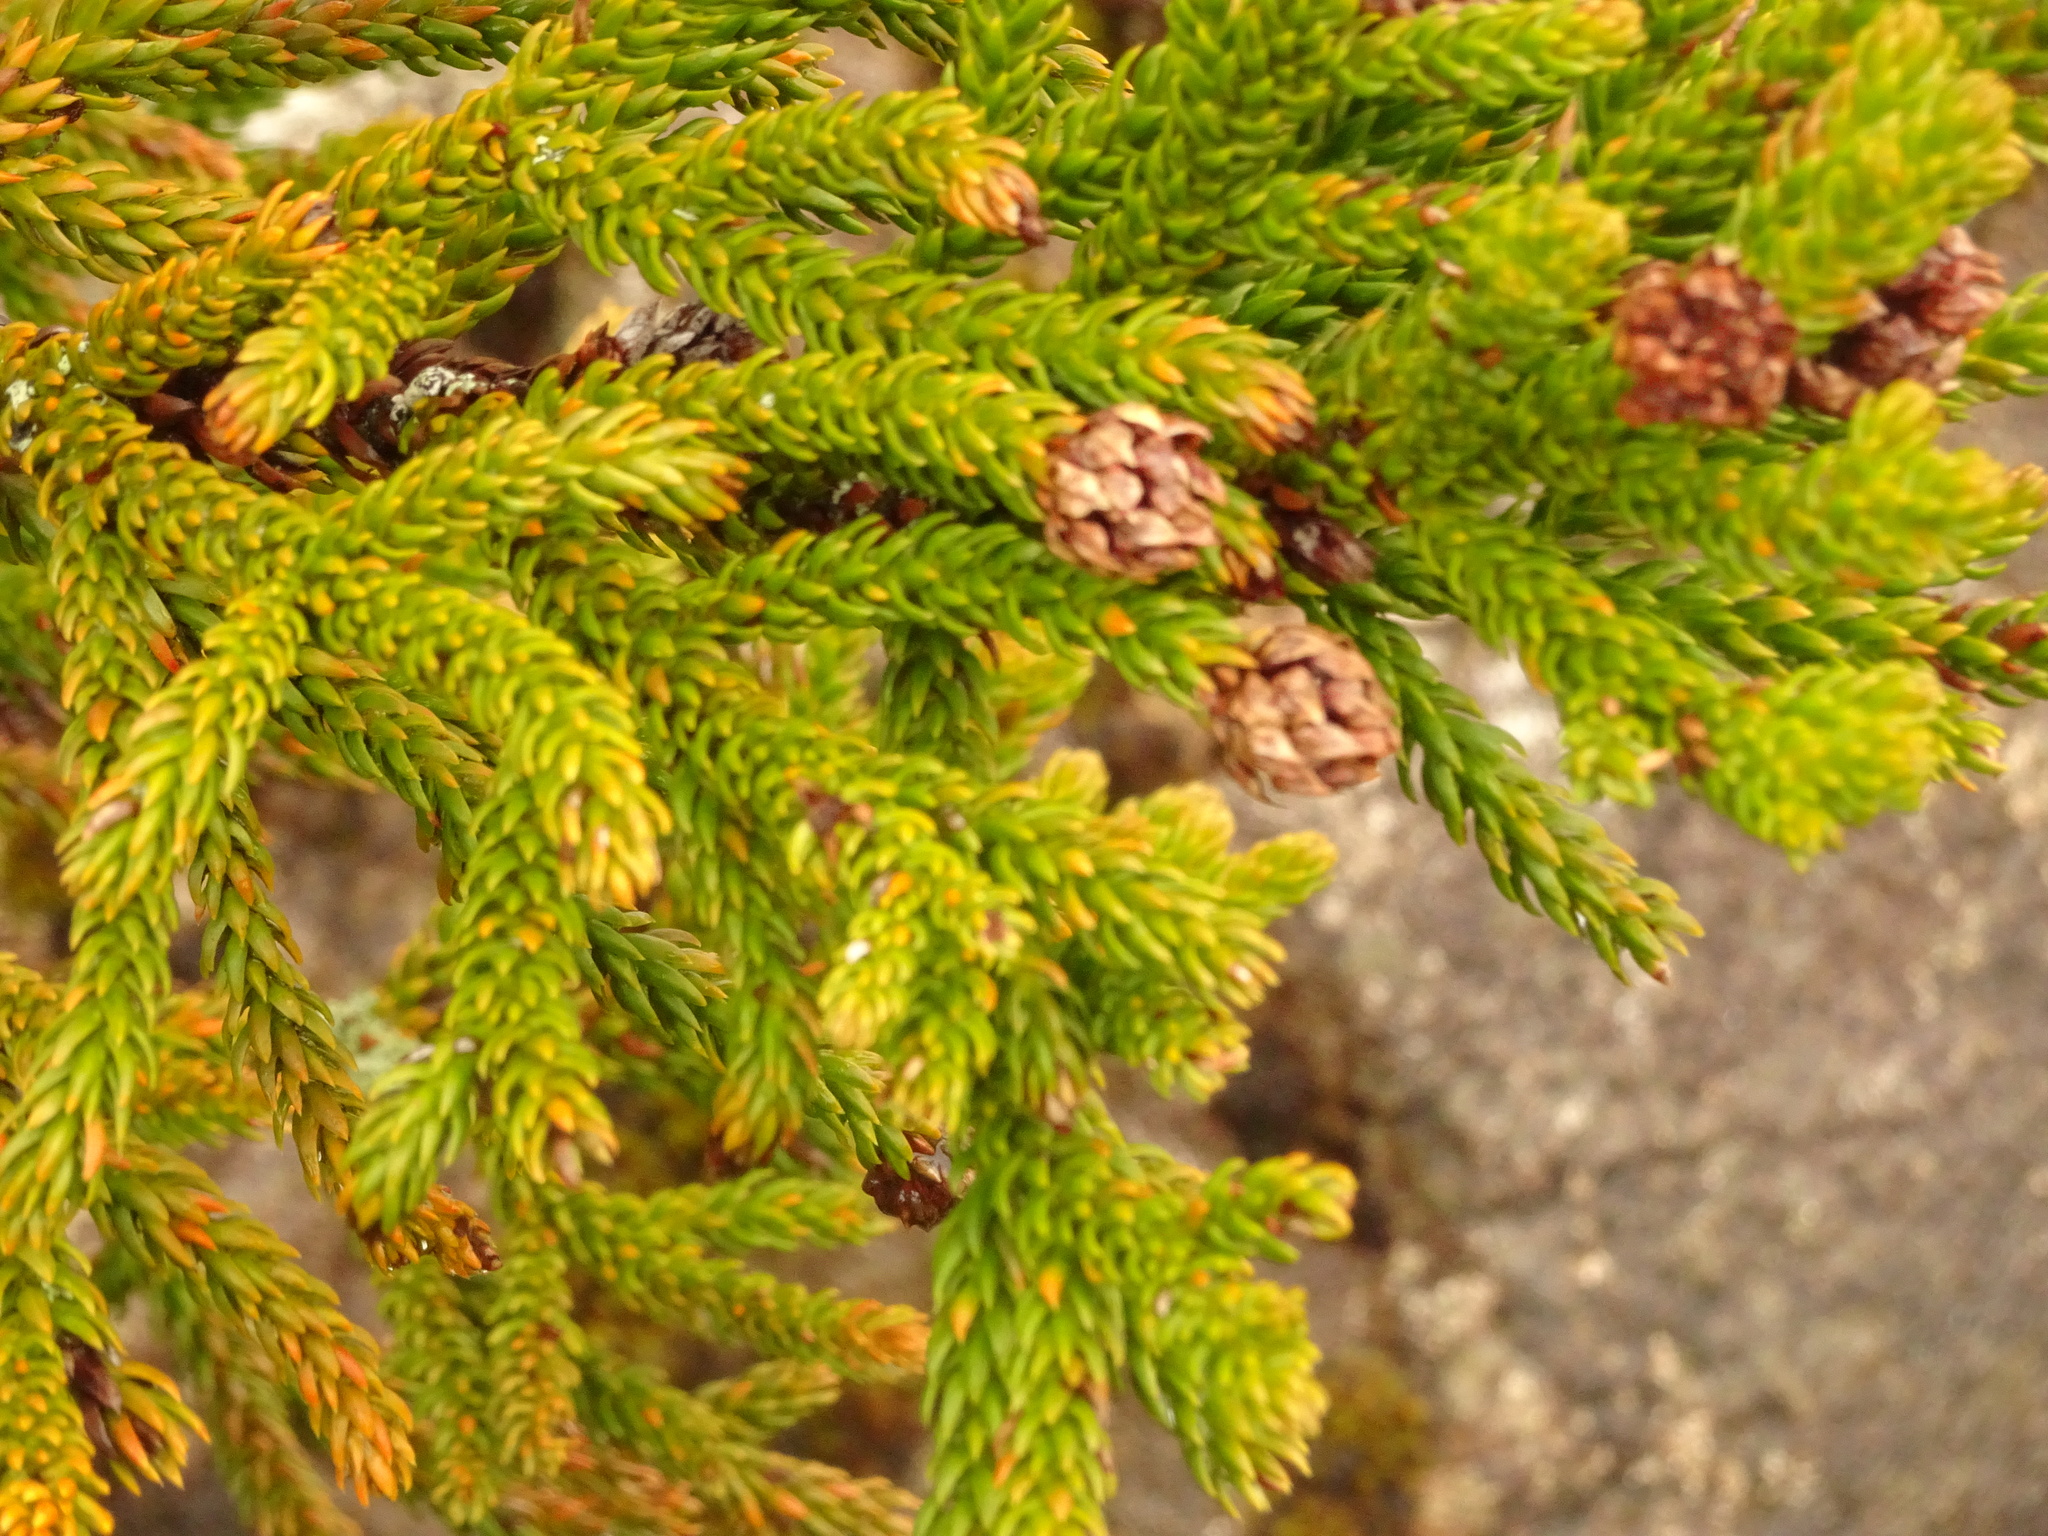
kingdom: Plantae
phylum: Tracheophyta
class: Pinopsida
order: Pinales
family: Cupressaceae
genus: Athrotaxis
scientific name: Athrotaxis selaginoides
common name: King william pine
